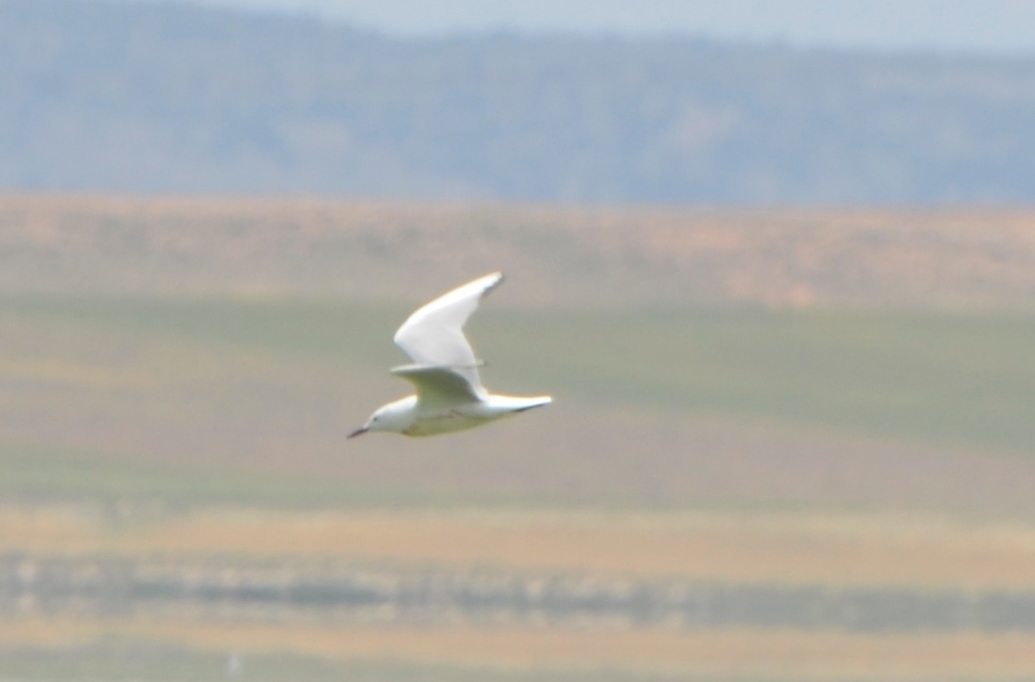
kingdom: Animalia
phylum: Chordata
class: Aves
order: Charadriiformes
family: Laridae
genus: Chroicocephalus
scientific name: Chroicocephalus genei
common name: Slender-billed gull
